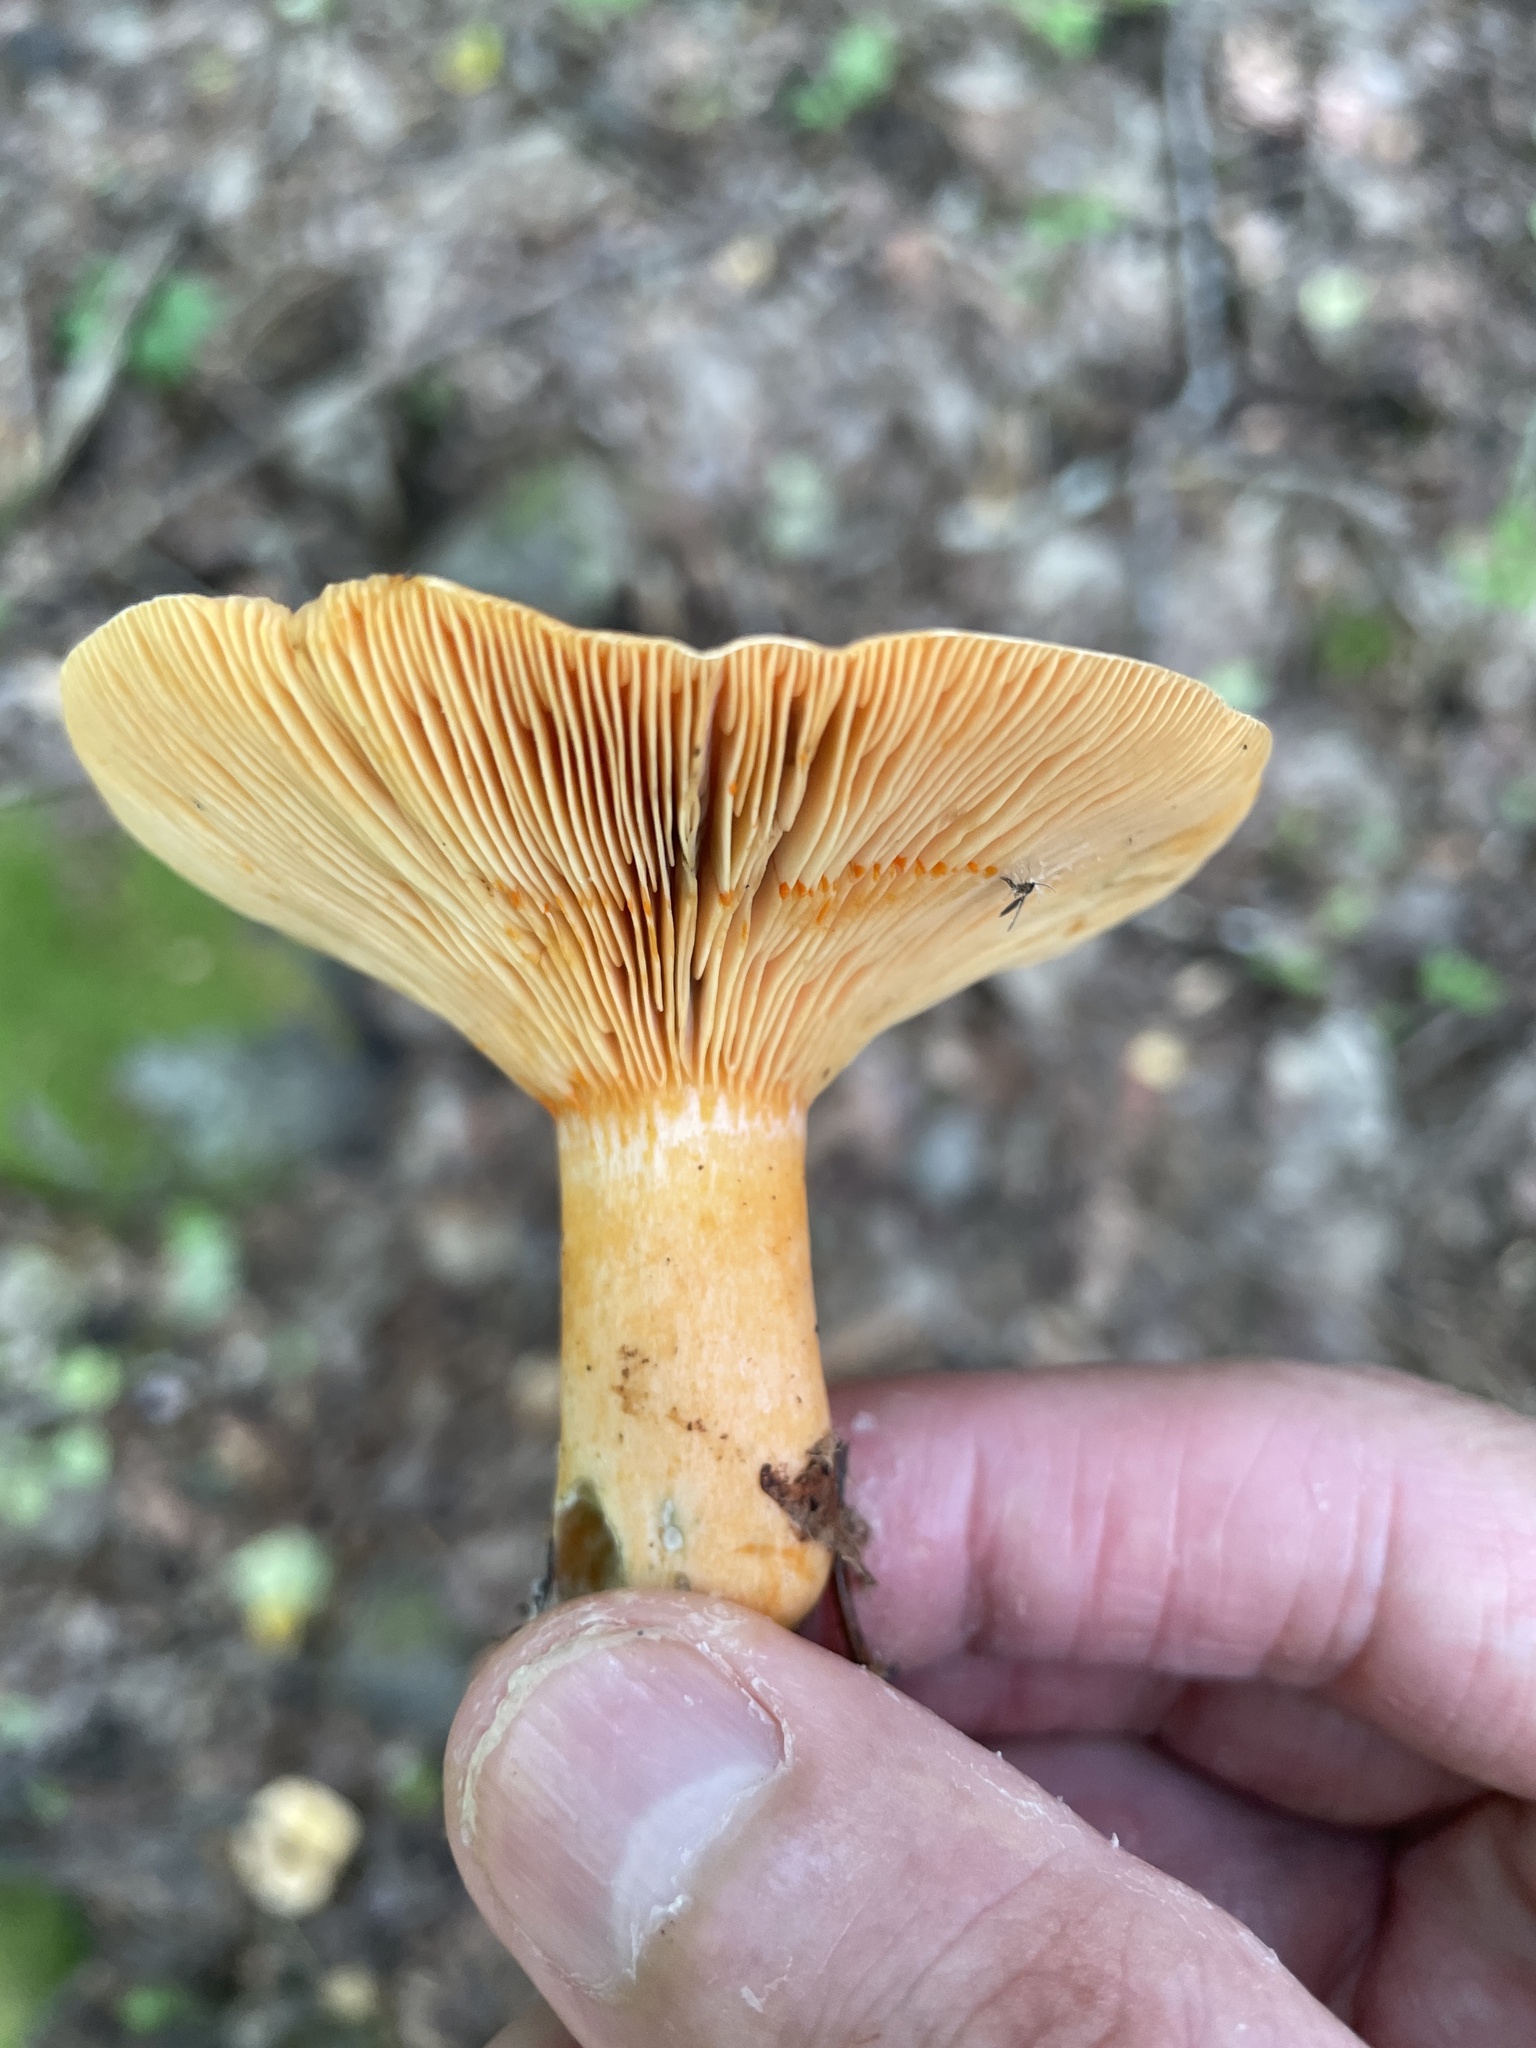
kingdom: Fungi
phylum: Basidiomycota
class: Agaricomycetes
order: Russulales
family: Russulaceae
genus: Lactarius
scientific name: Lactarius deterrimus
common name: False saffron milkcap
